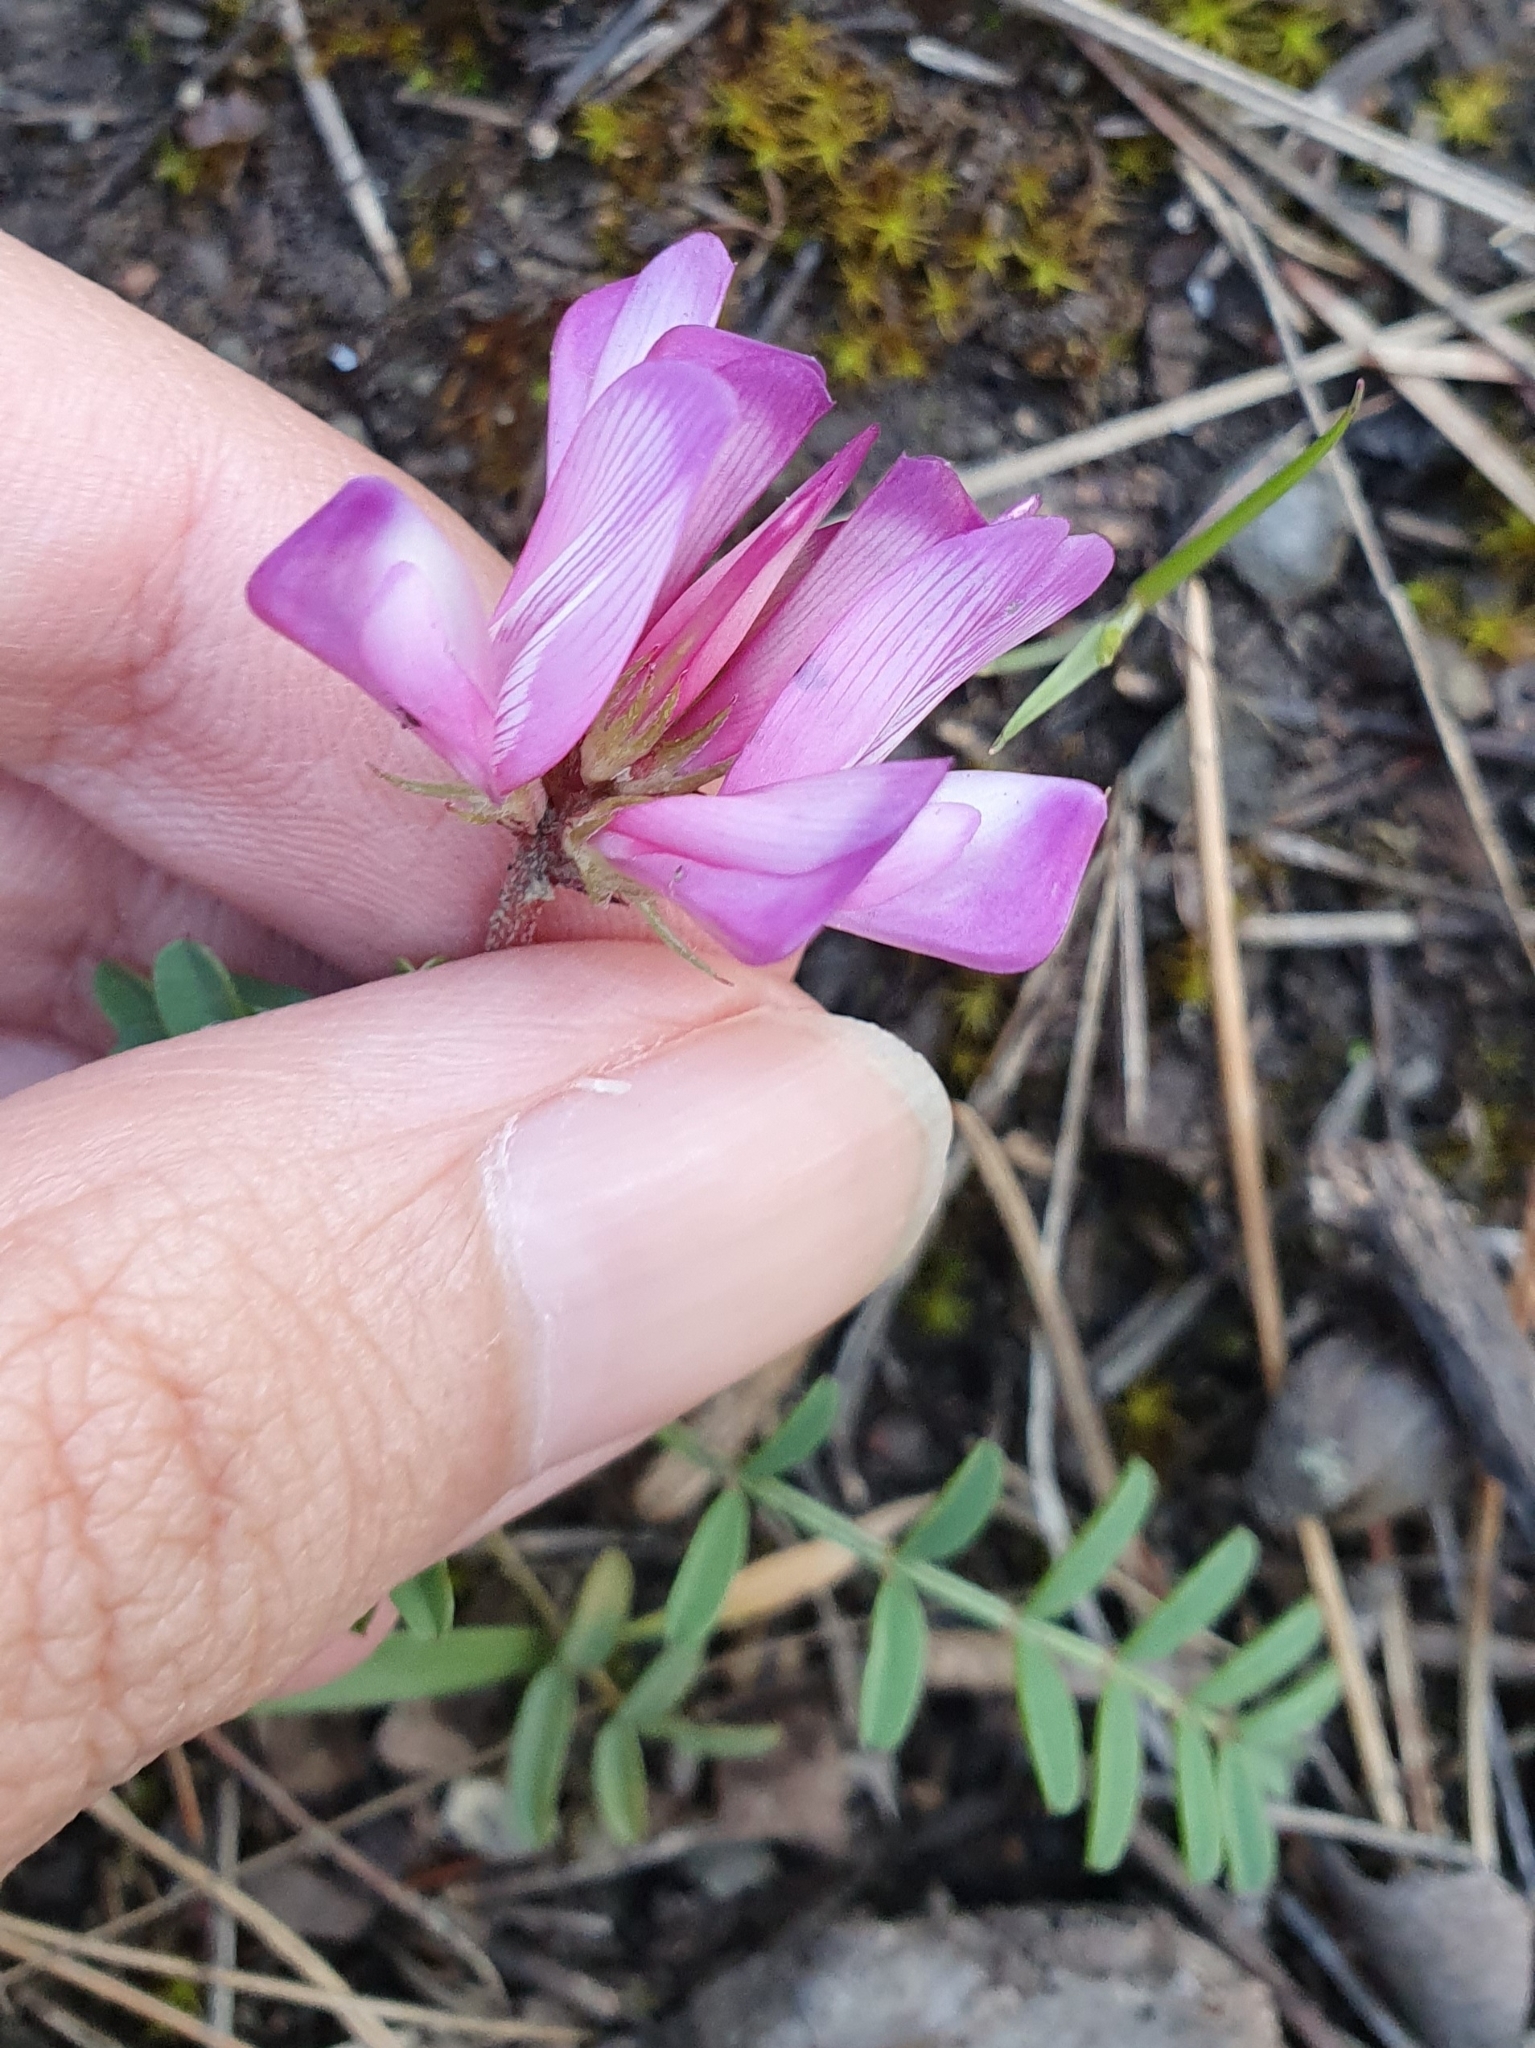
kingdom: Plantae
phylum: Tracheophyta
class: Magnoliopsida
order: Fabales
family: Fabaceae
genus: Sulla
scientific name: Sulla glomerata
